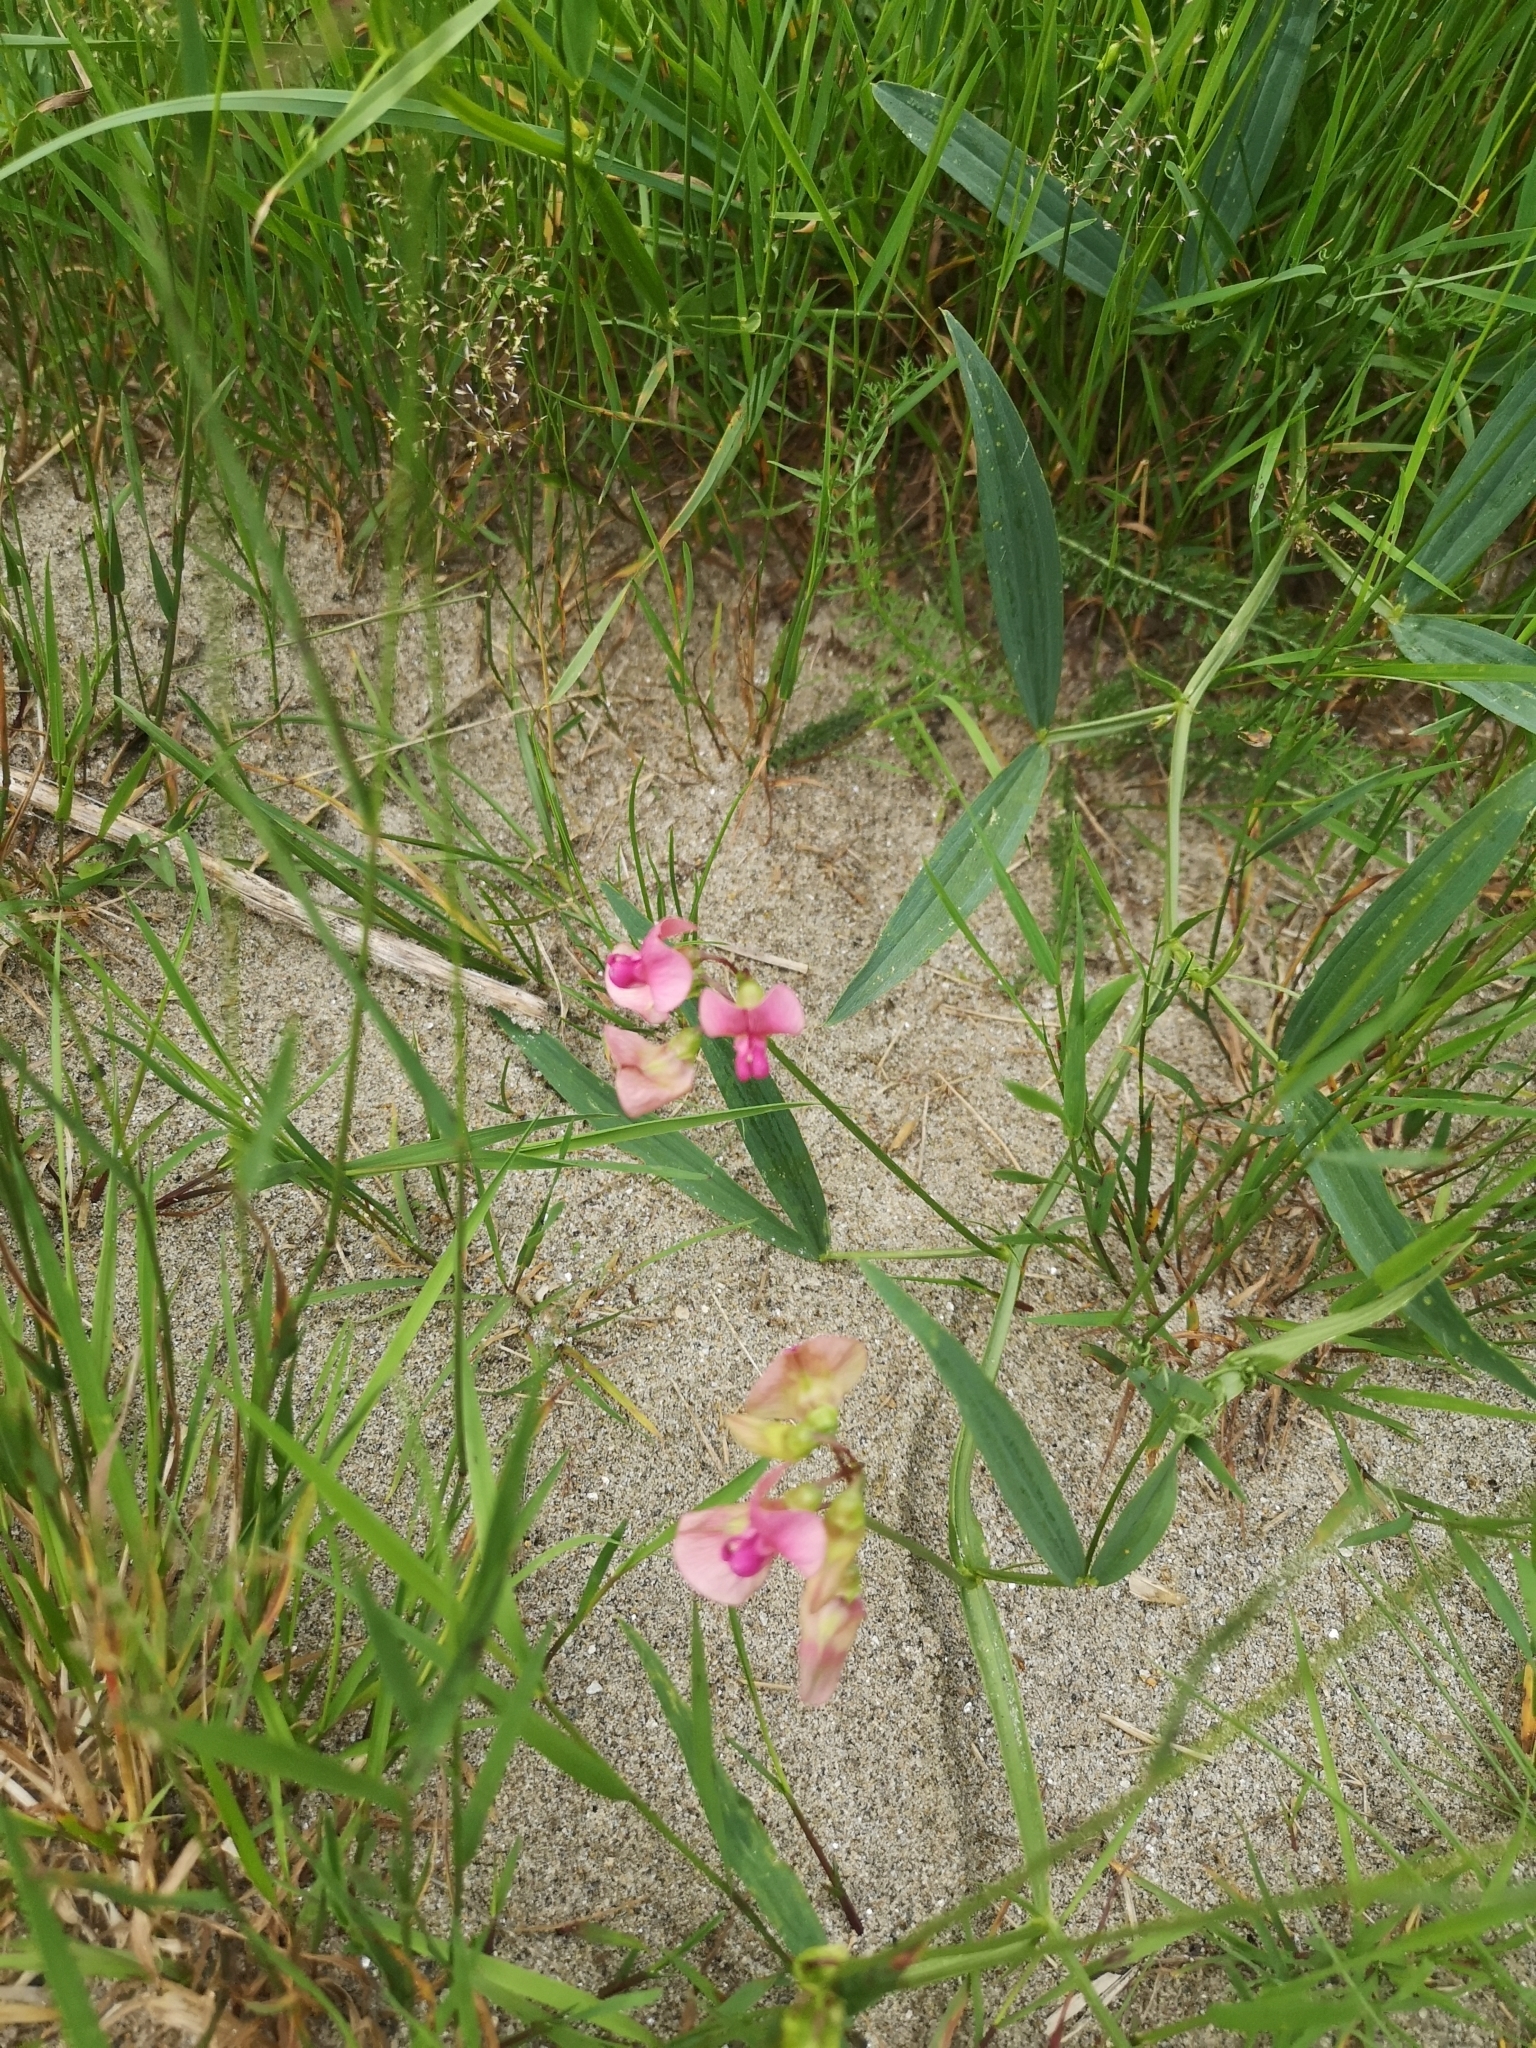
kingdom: Plantae
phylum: Tracheophyta
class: Magnoliopsida
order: Fabales
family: Fabaceae
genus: Lathyrus
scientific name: Lathyrus sylvestris
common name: Flat pea
